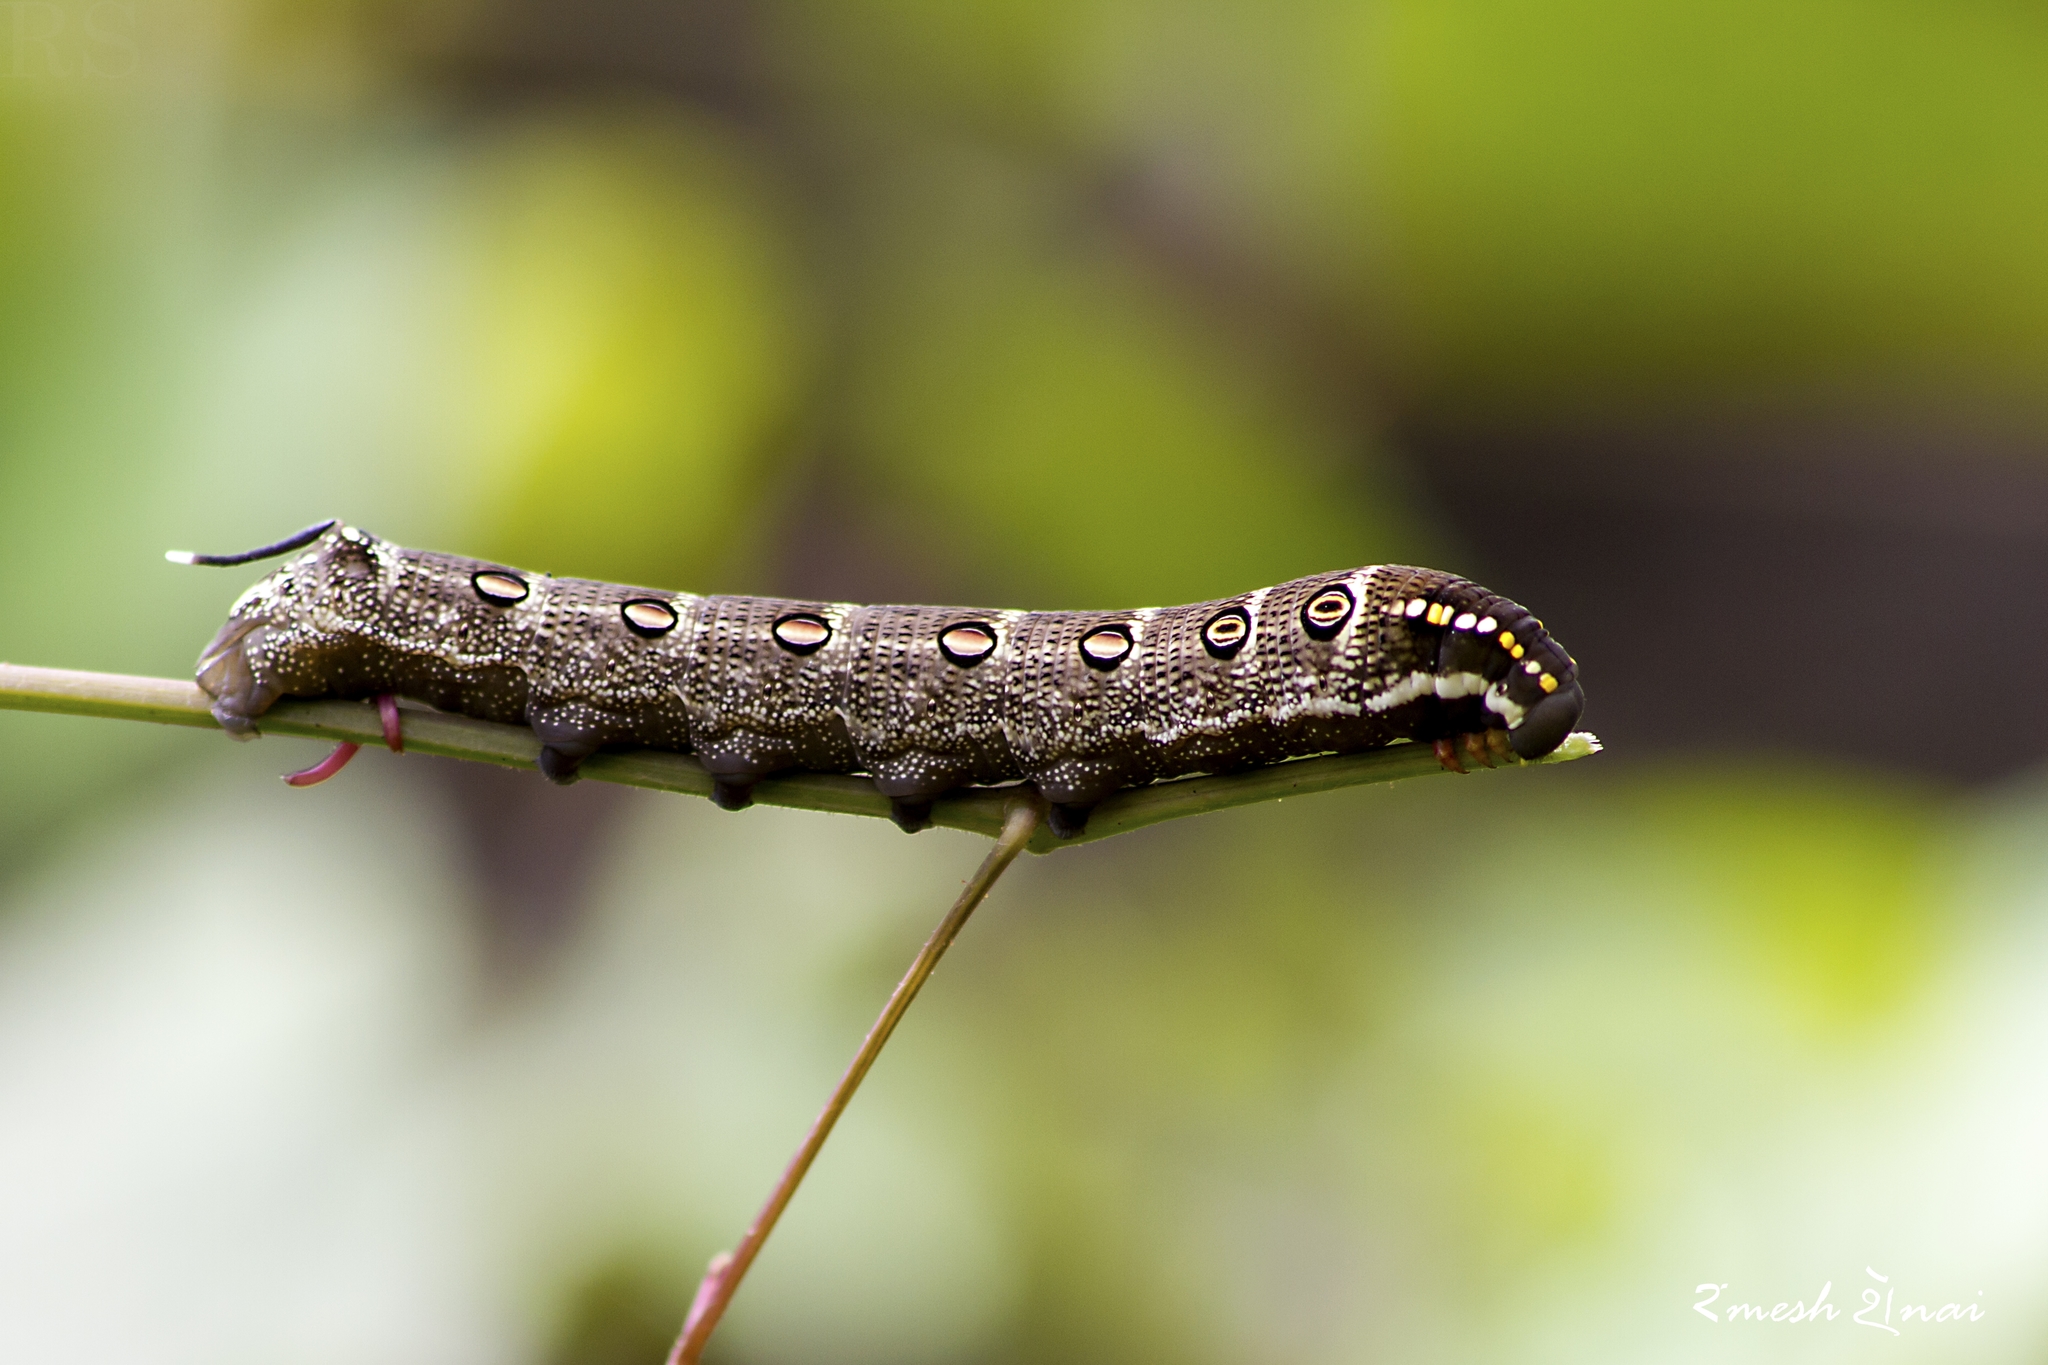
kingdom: Animalia
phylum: Arthropoda
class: Insecta
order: Lepidoptera
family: Sphingidae
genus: Theretra
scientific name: Theretra oldenlandiae
